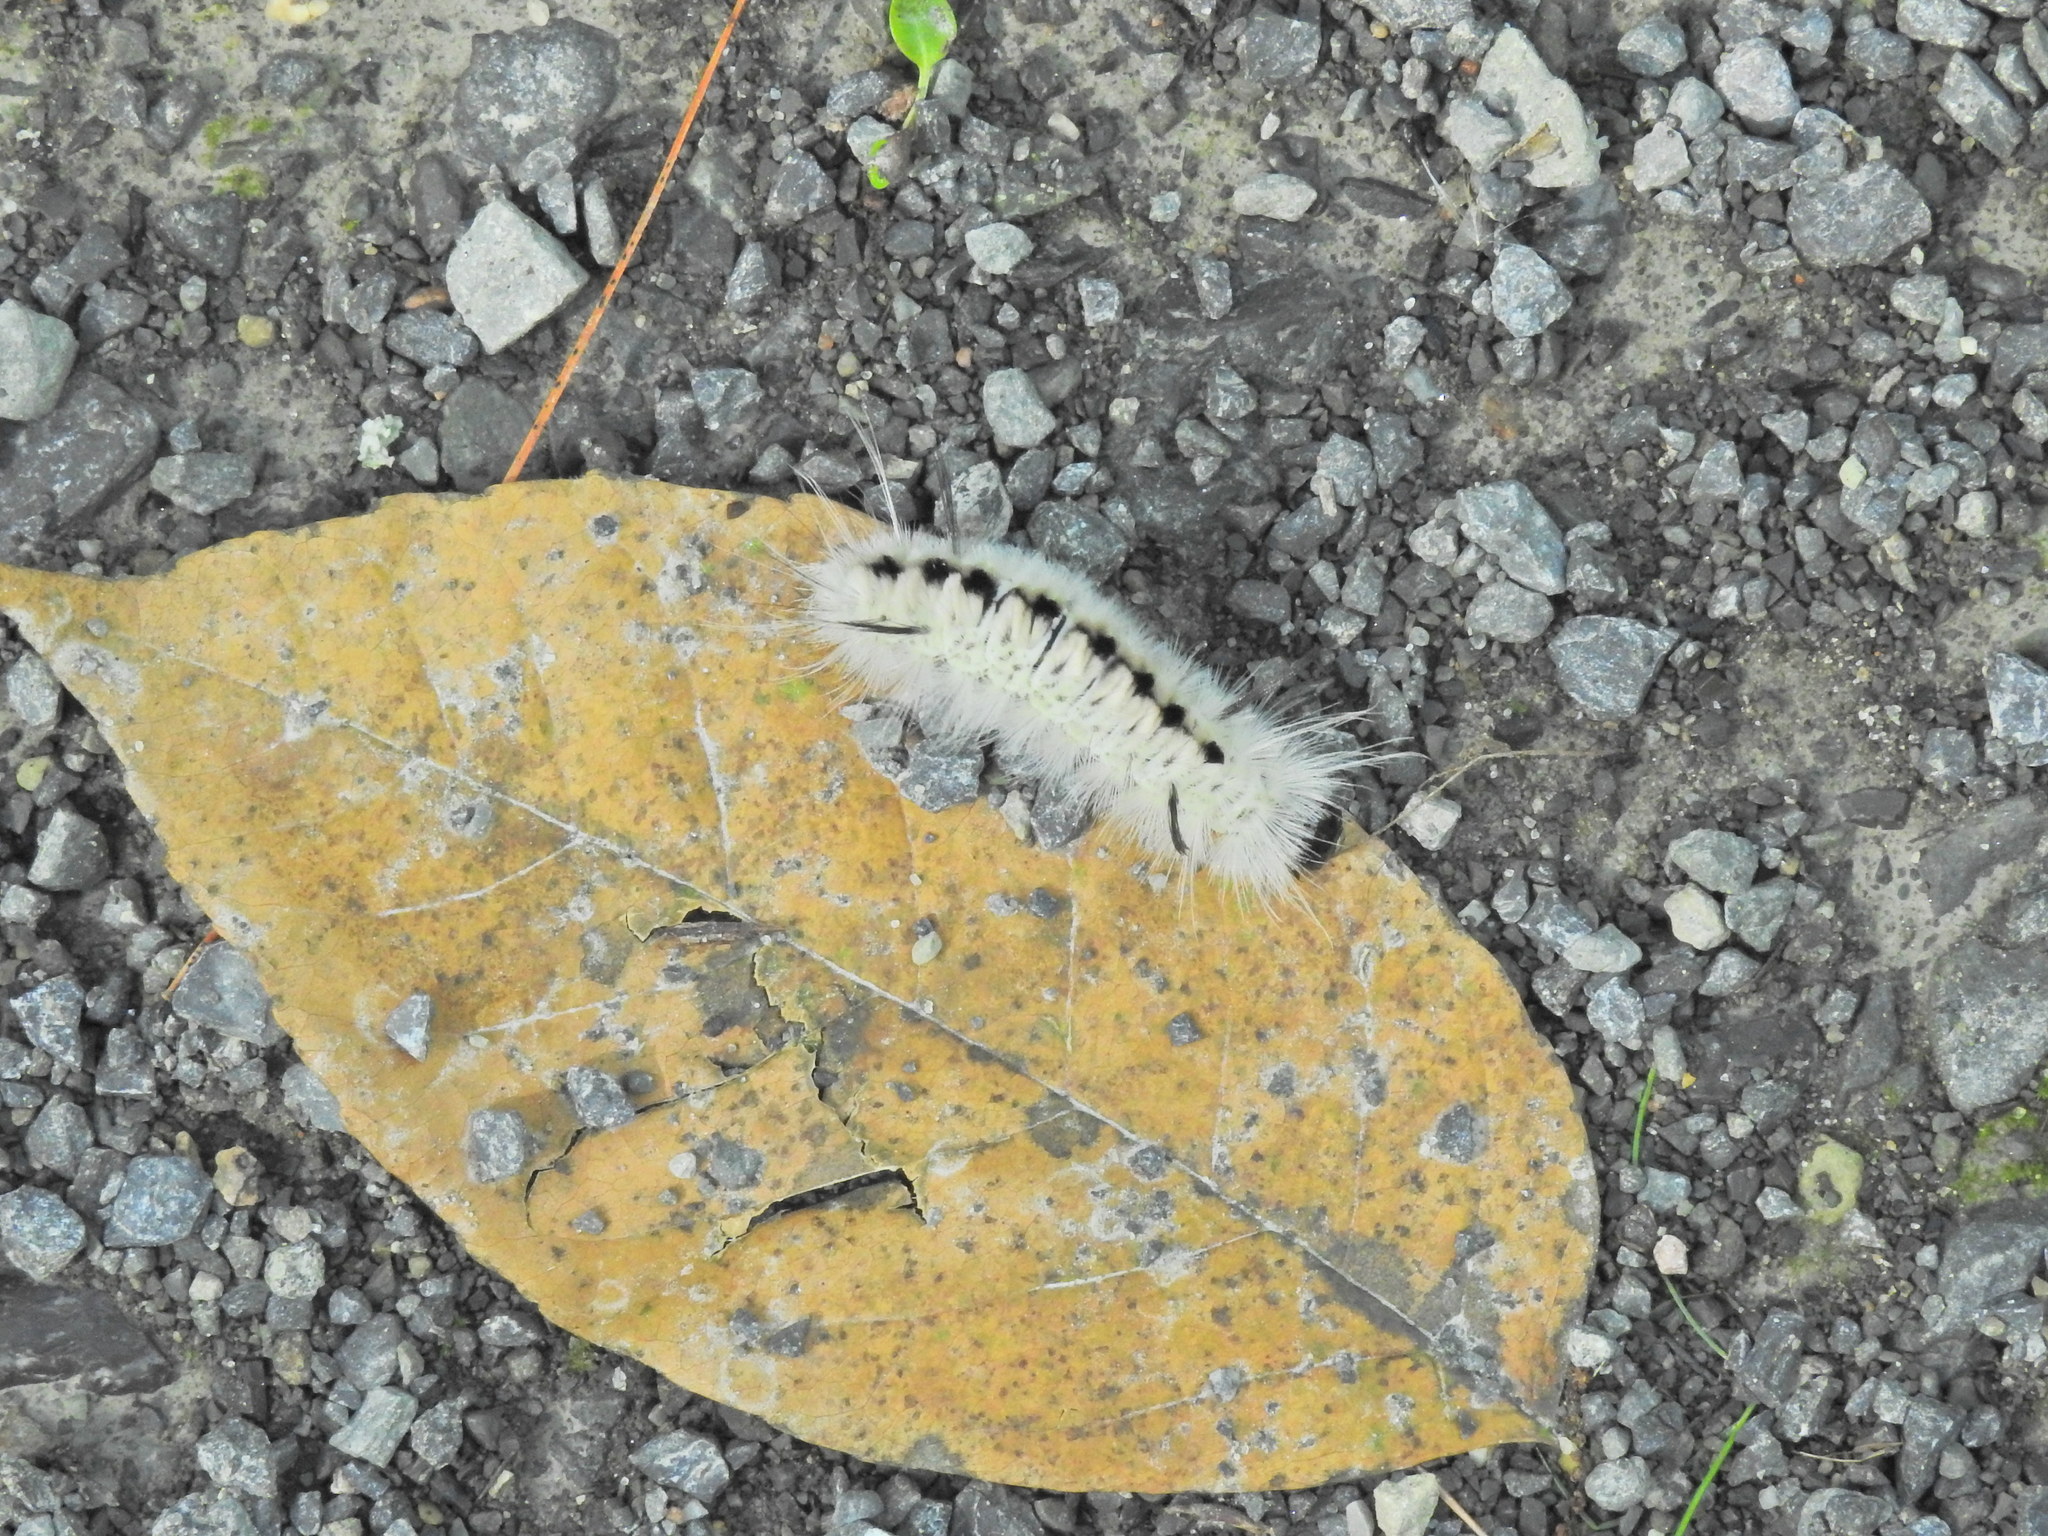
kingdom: Animalia
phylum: Arthropoda
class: Insecta
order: Lepidoptera
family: Erebidae
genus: Lophocampa
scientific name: Lophocampa caryae
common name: Hickory tussock moth
